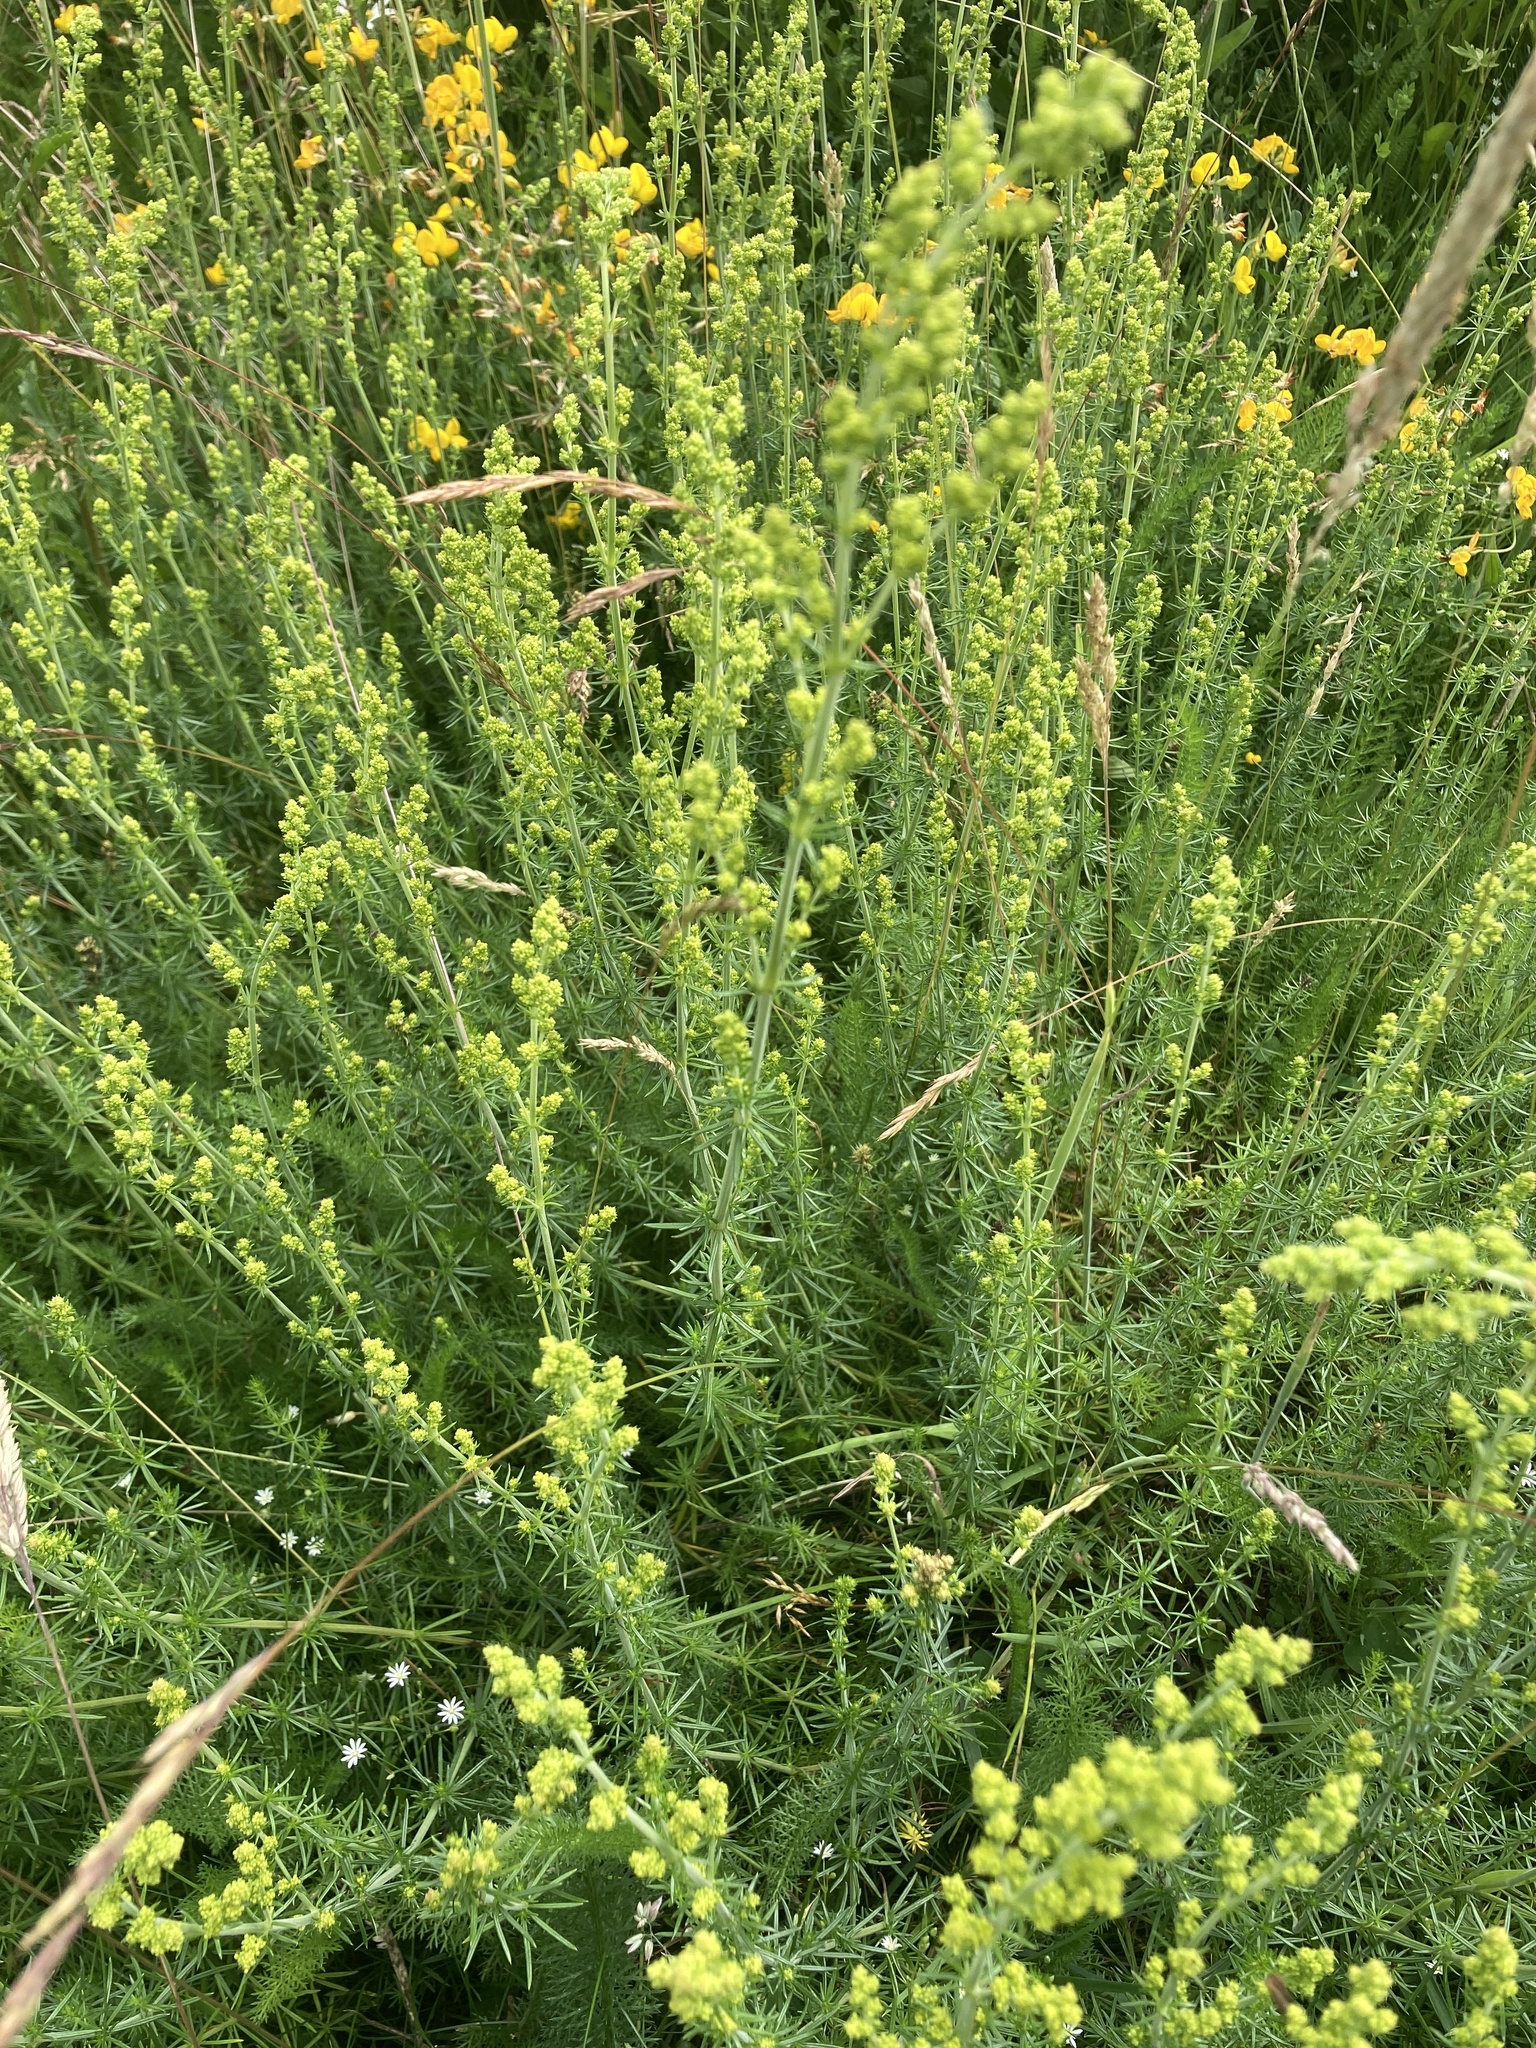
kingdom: Plantae
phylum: Tracheophyta
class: Magnoliopsida
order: Gentianales
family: Rubiaceae
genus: Galium
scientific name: Galium verum
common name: Lady's bedstraw
